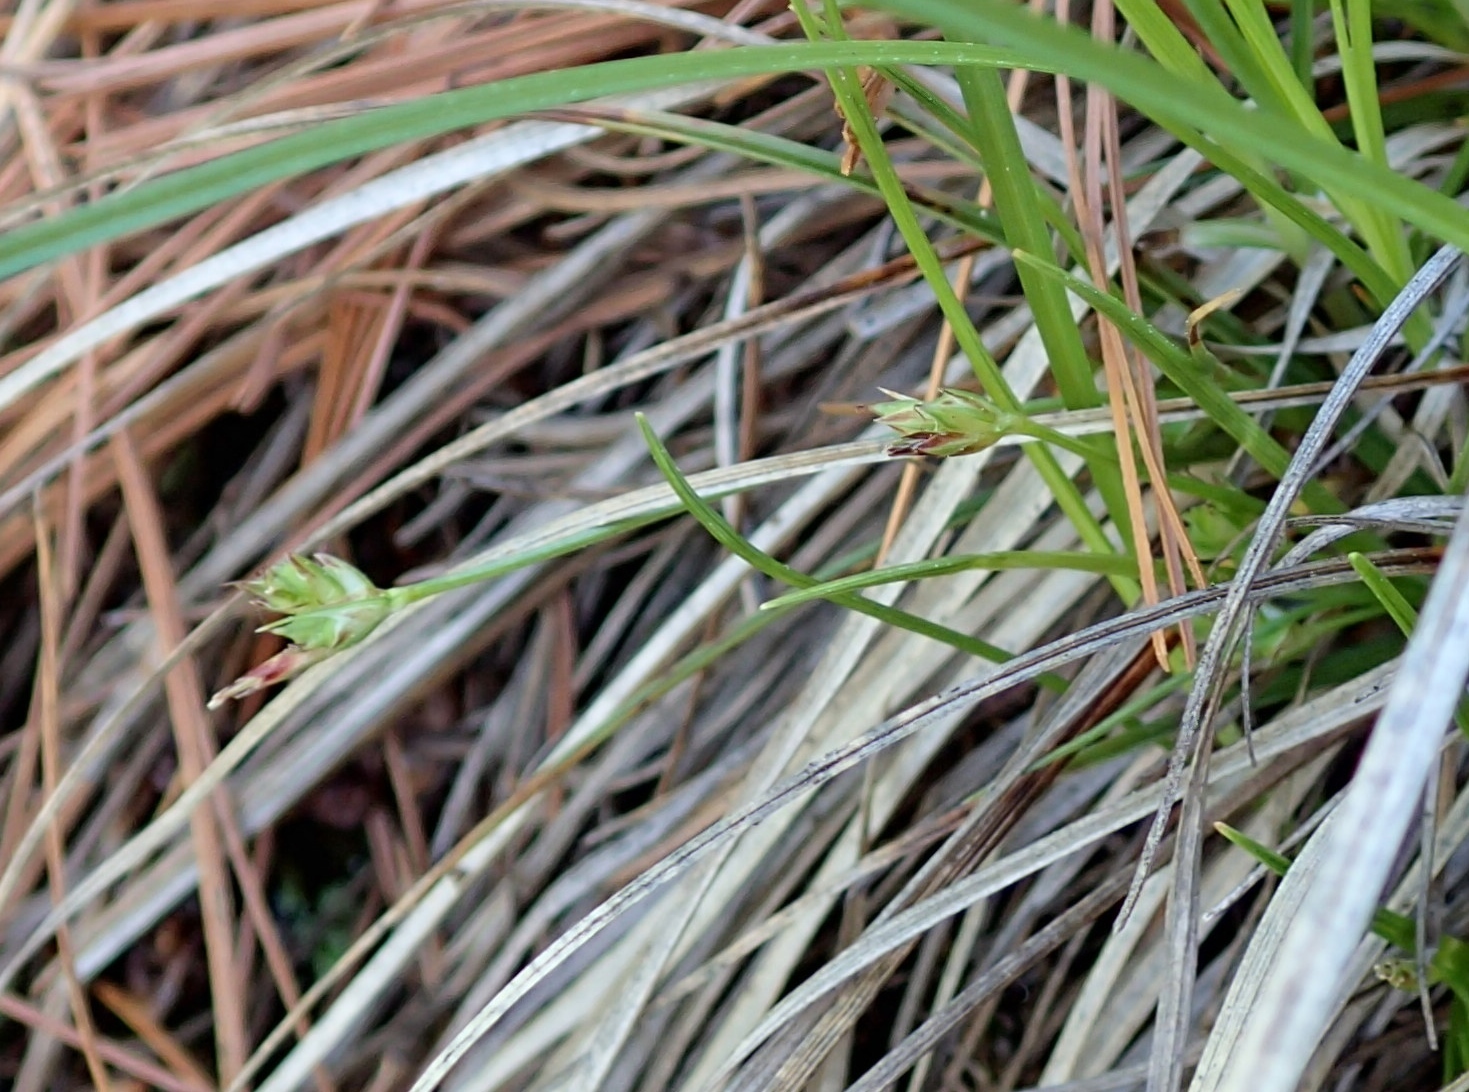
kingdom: Plantae
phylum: Tracheophyta
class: Liliopsida
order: Poales
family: Cyperaceae
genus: Carex
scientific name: Carex umbellata
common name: Early oak sedge
